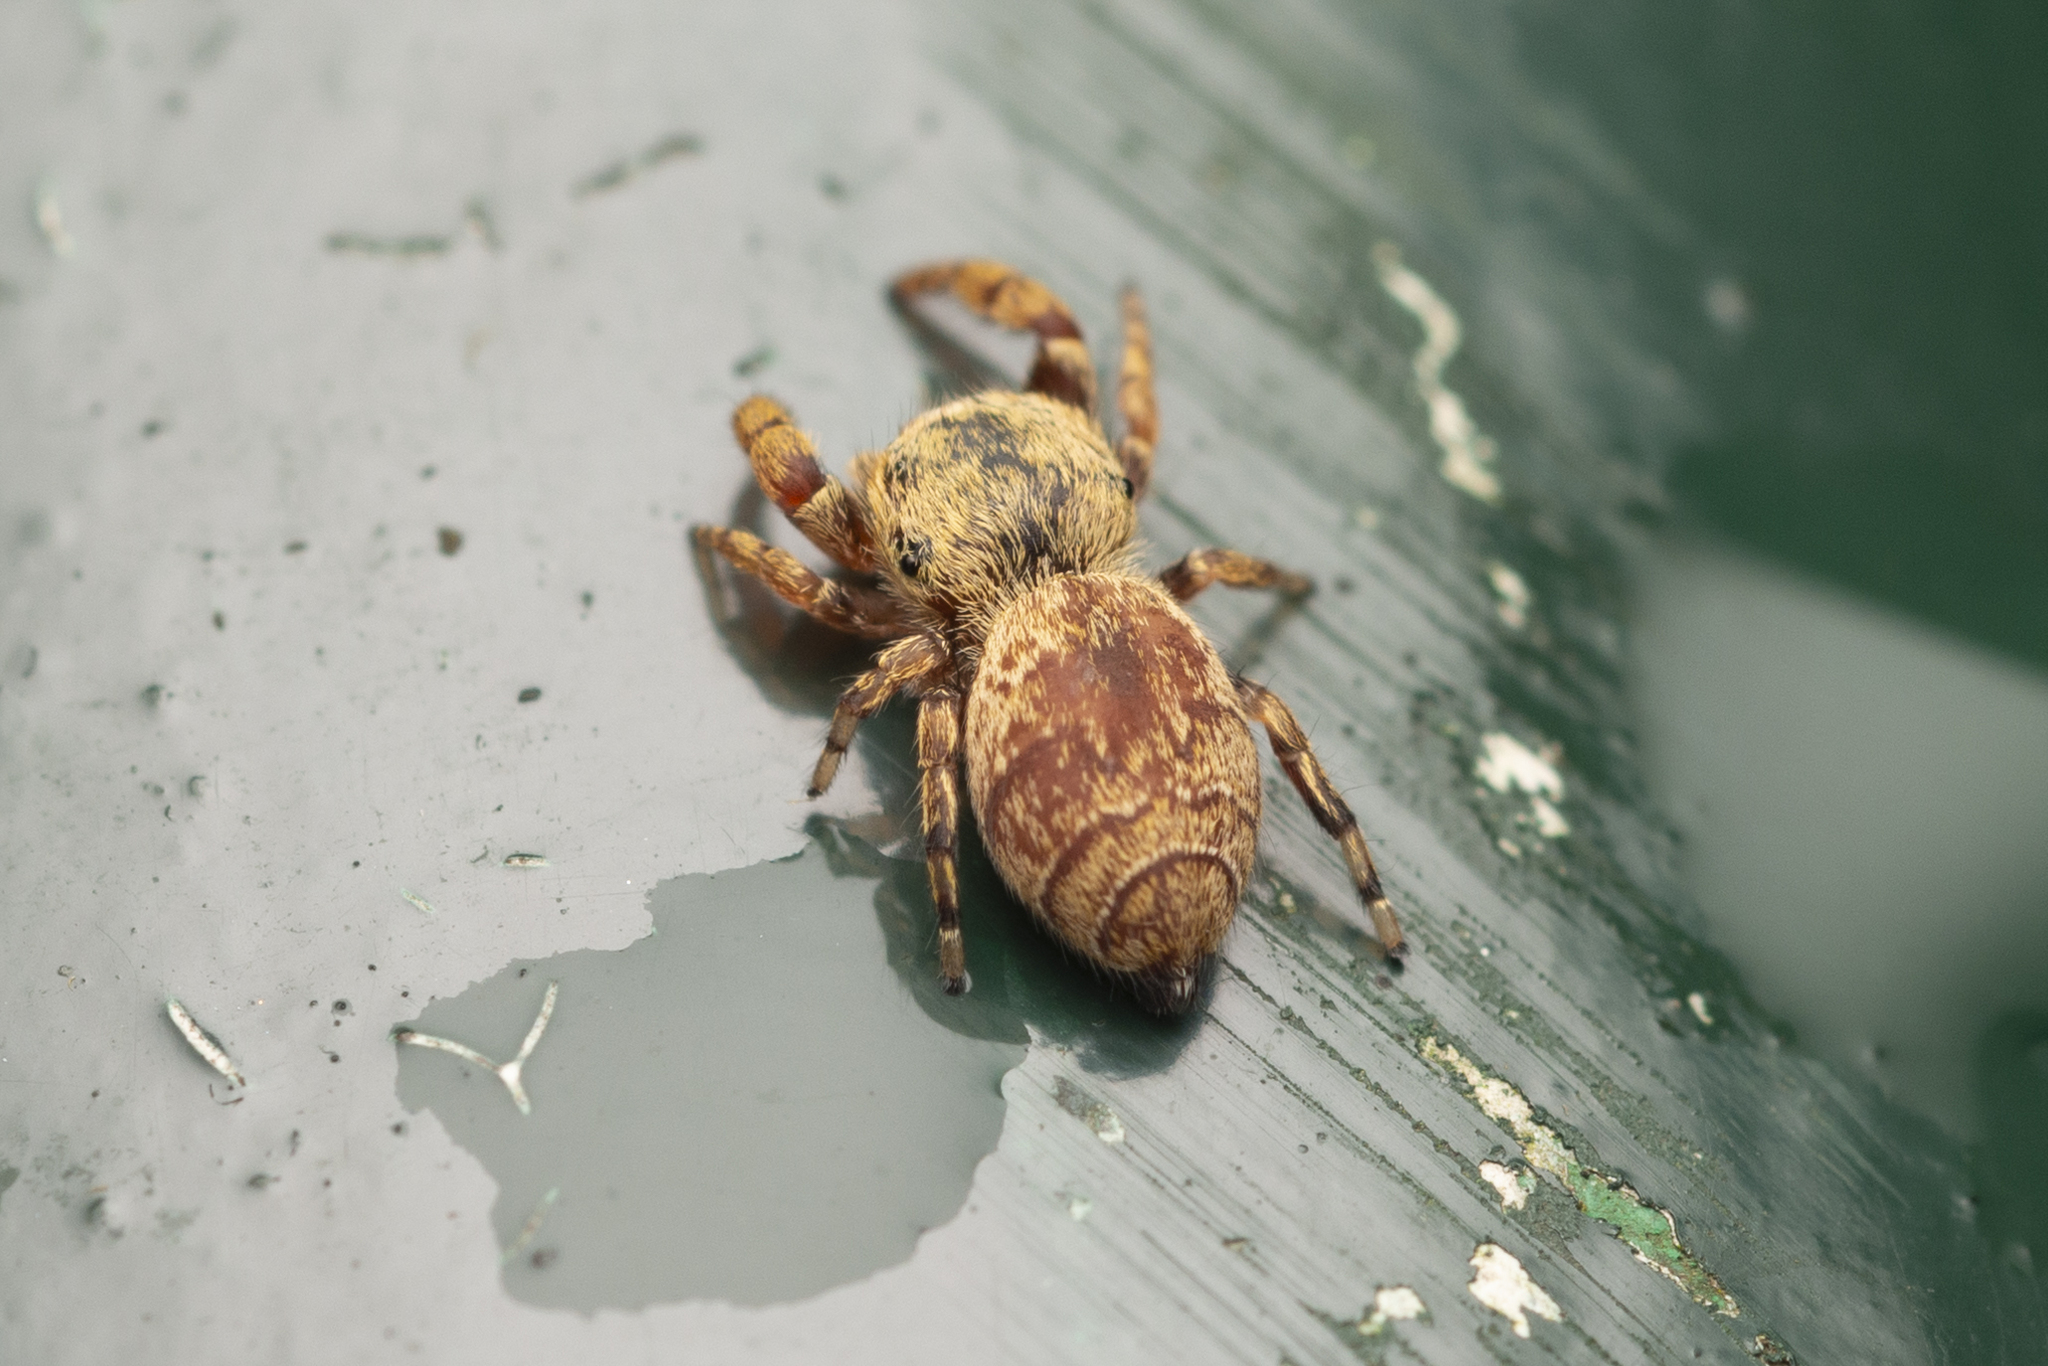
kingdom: Animalia
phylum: Arthropoda
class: Arachnida
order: Araneae
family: Salticidae
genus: Rhene
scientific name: Rhene flavicomans
